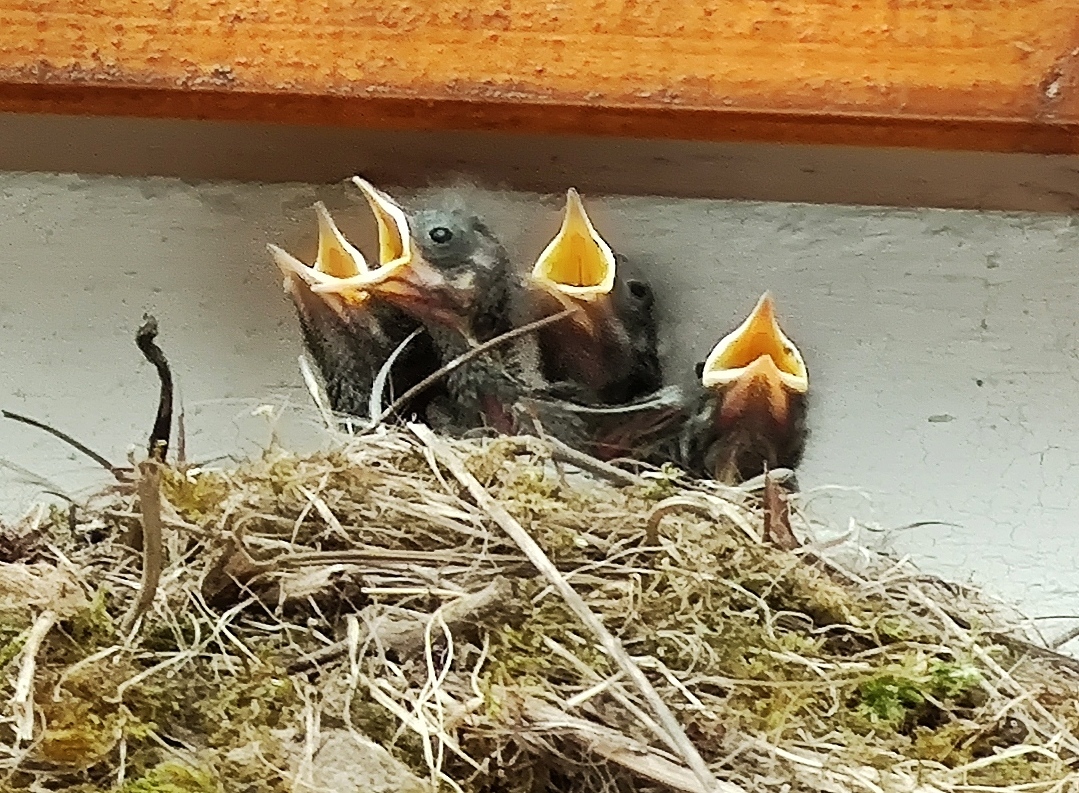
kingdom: Animalia
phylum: Chordata
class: Aves
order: Passeriformes
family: Muscicapidae
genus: Phoenicurus
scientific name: Phoenicurus ochruros
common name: Black redstart
